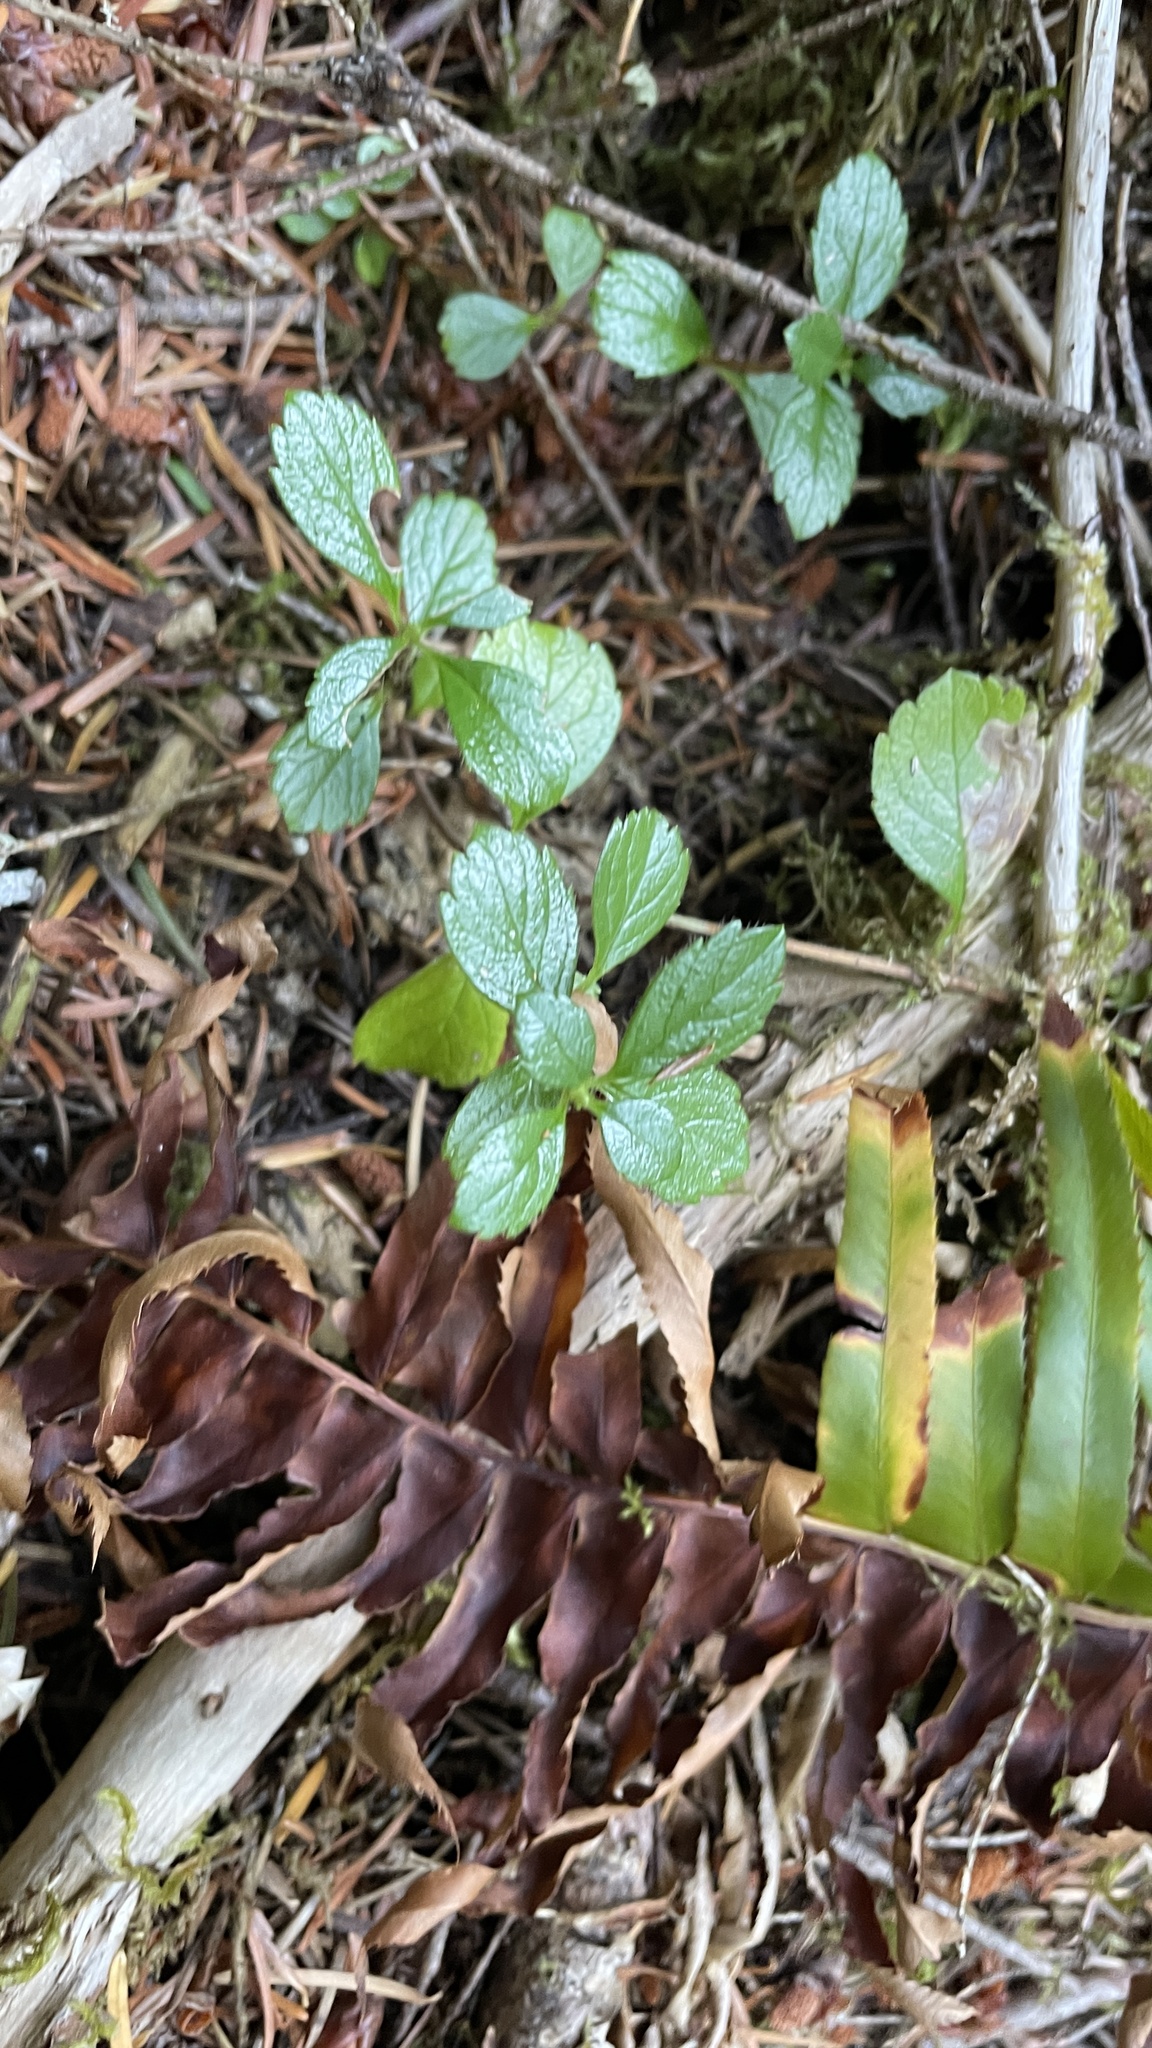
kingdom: Plantae
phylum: Tracheophyta
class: Magnoliopsida
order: Dipsacales
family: Caprifoliaceae
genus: Linnaea
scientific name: Linnaea borealis
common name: Twinflower
